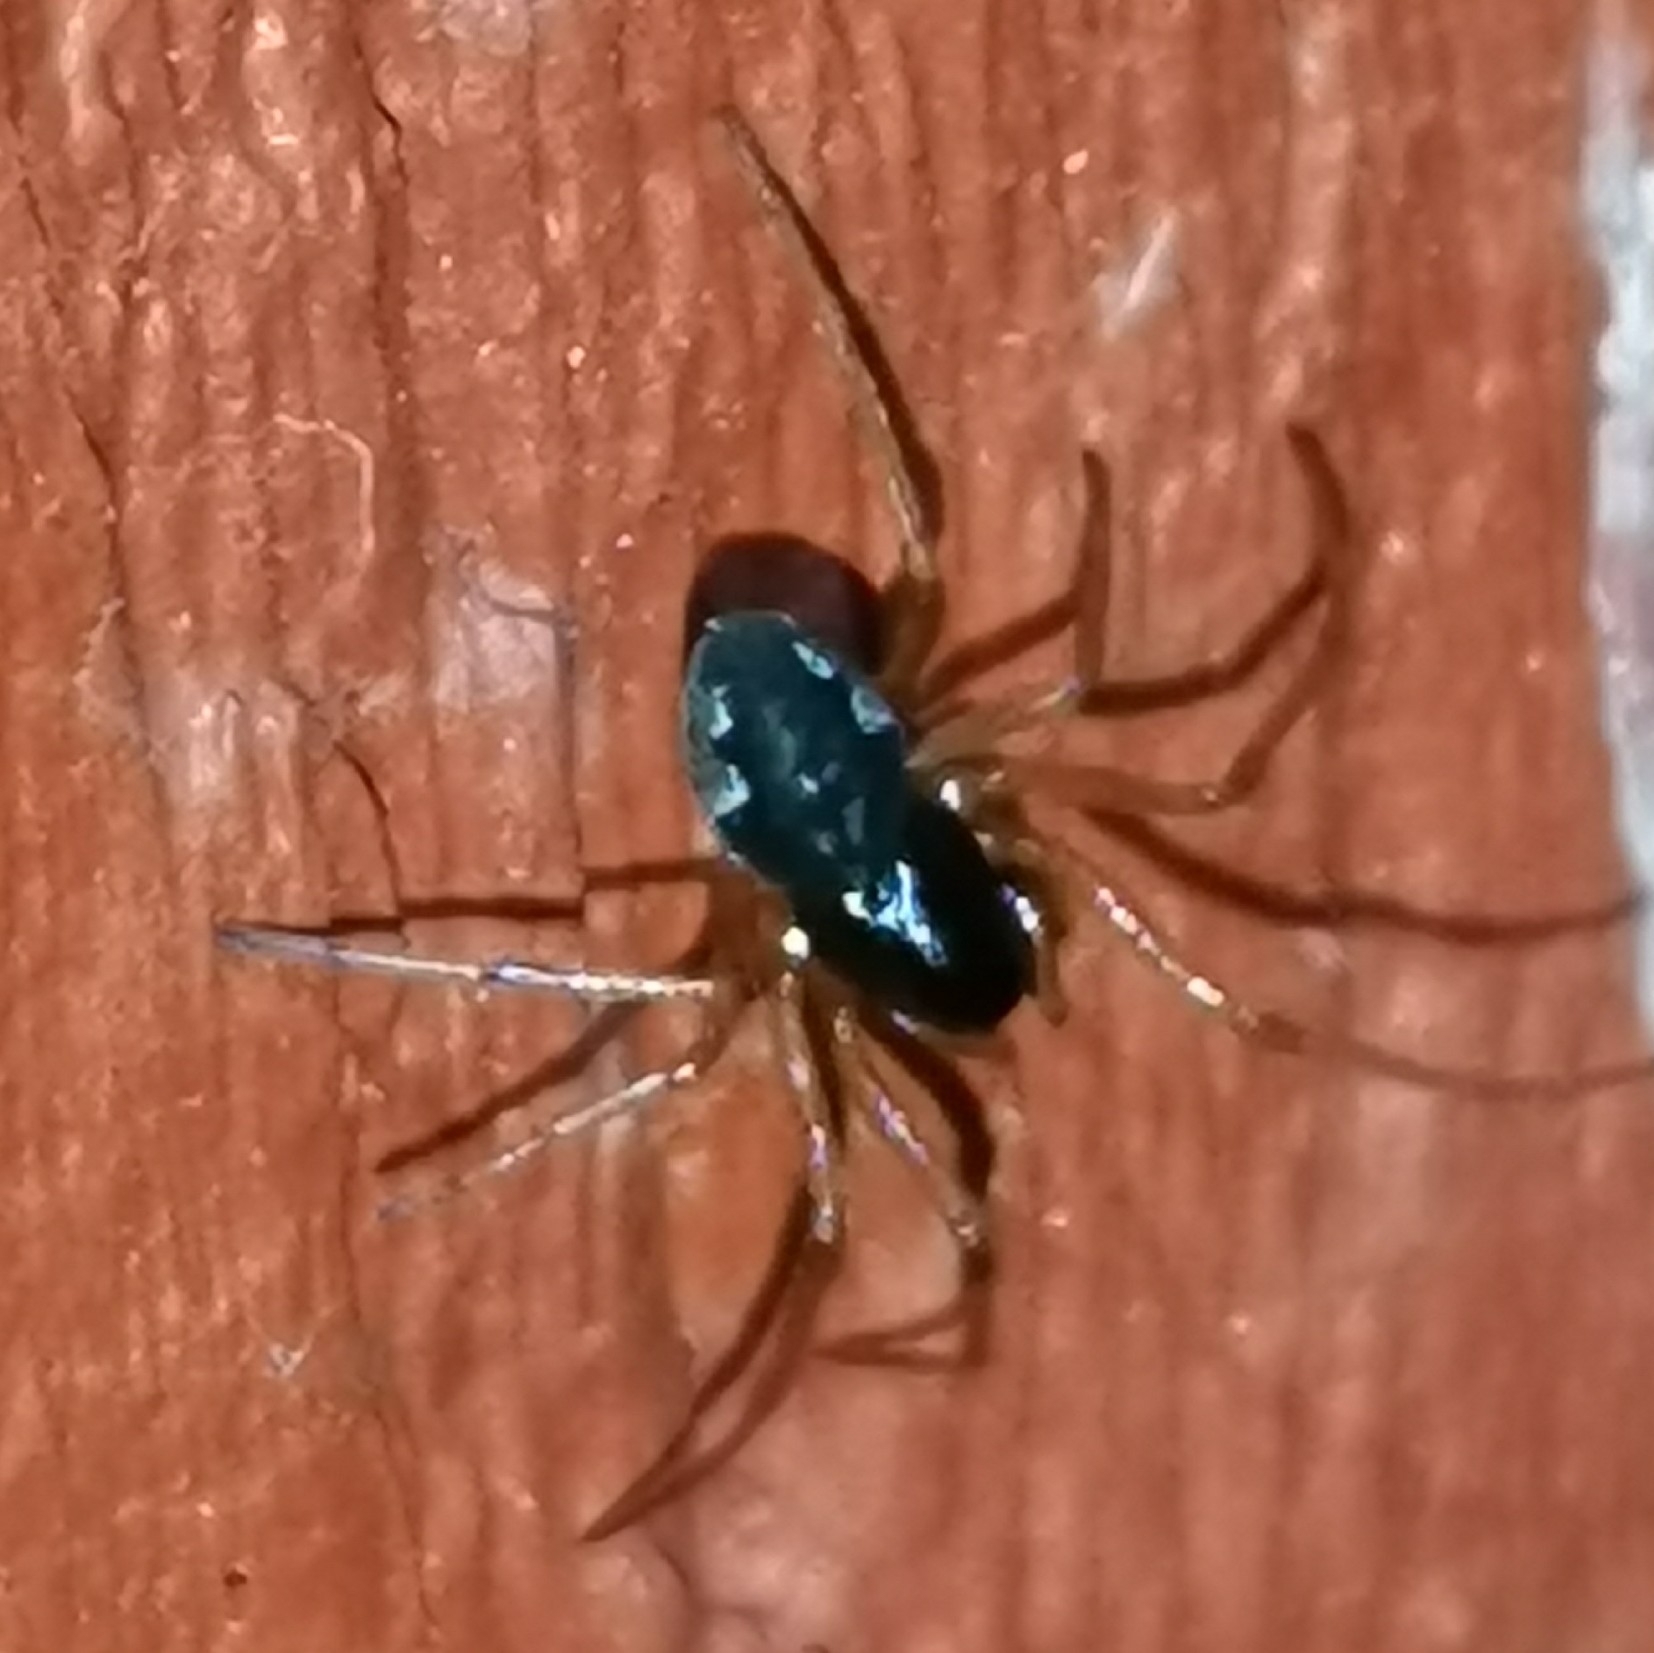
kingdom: Animalia
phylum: Arthropoda
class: Arachnida
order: Araneae
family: Tetragnathidae
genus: Pachygnatha
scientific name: Pachygnatha degeeri
